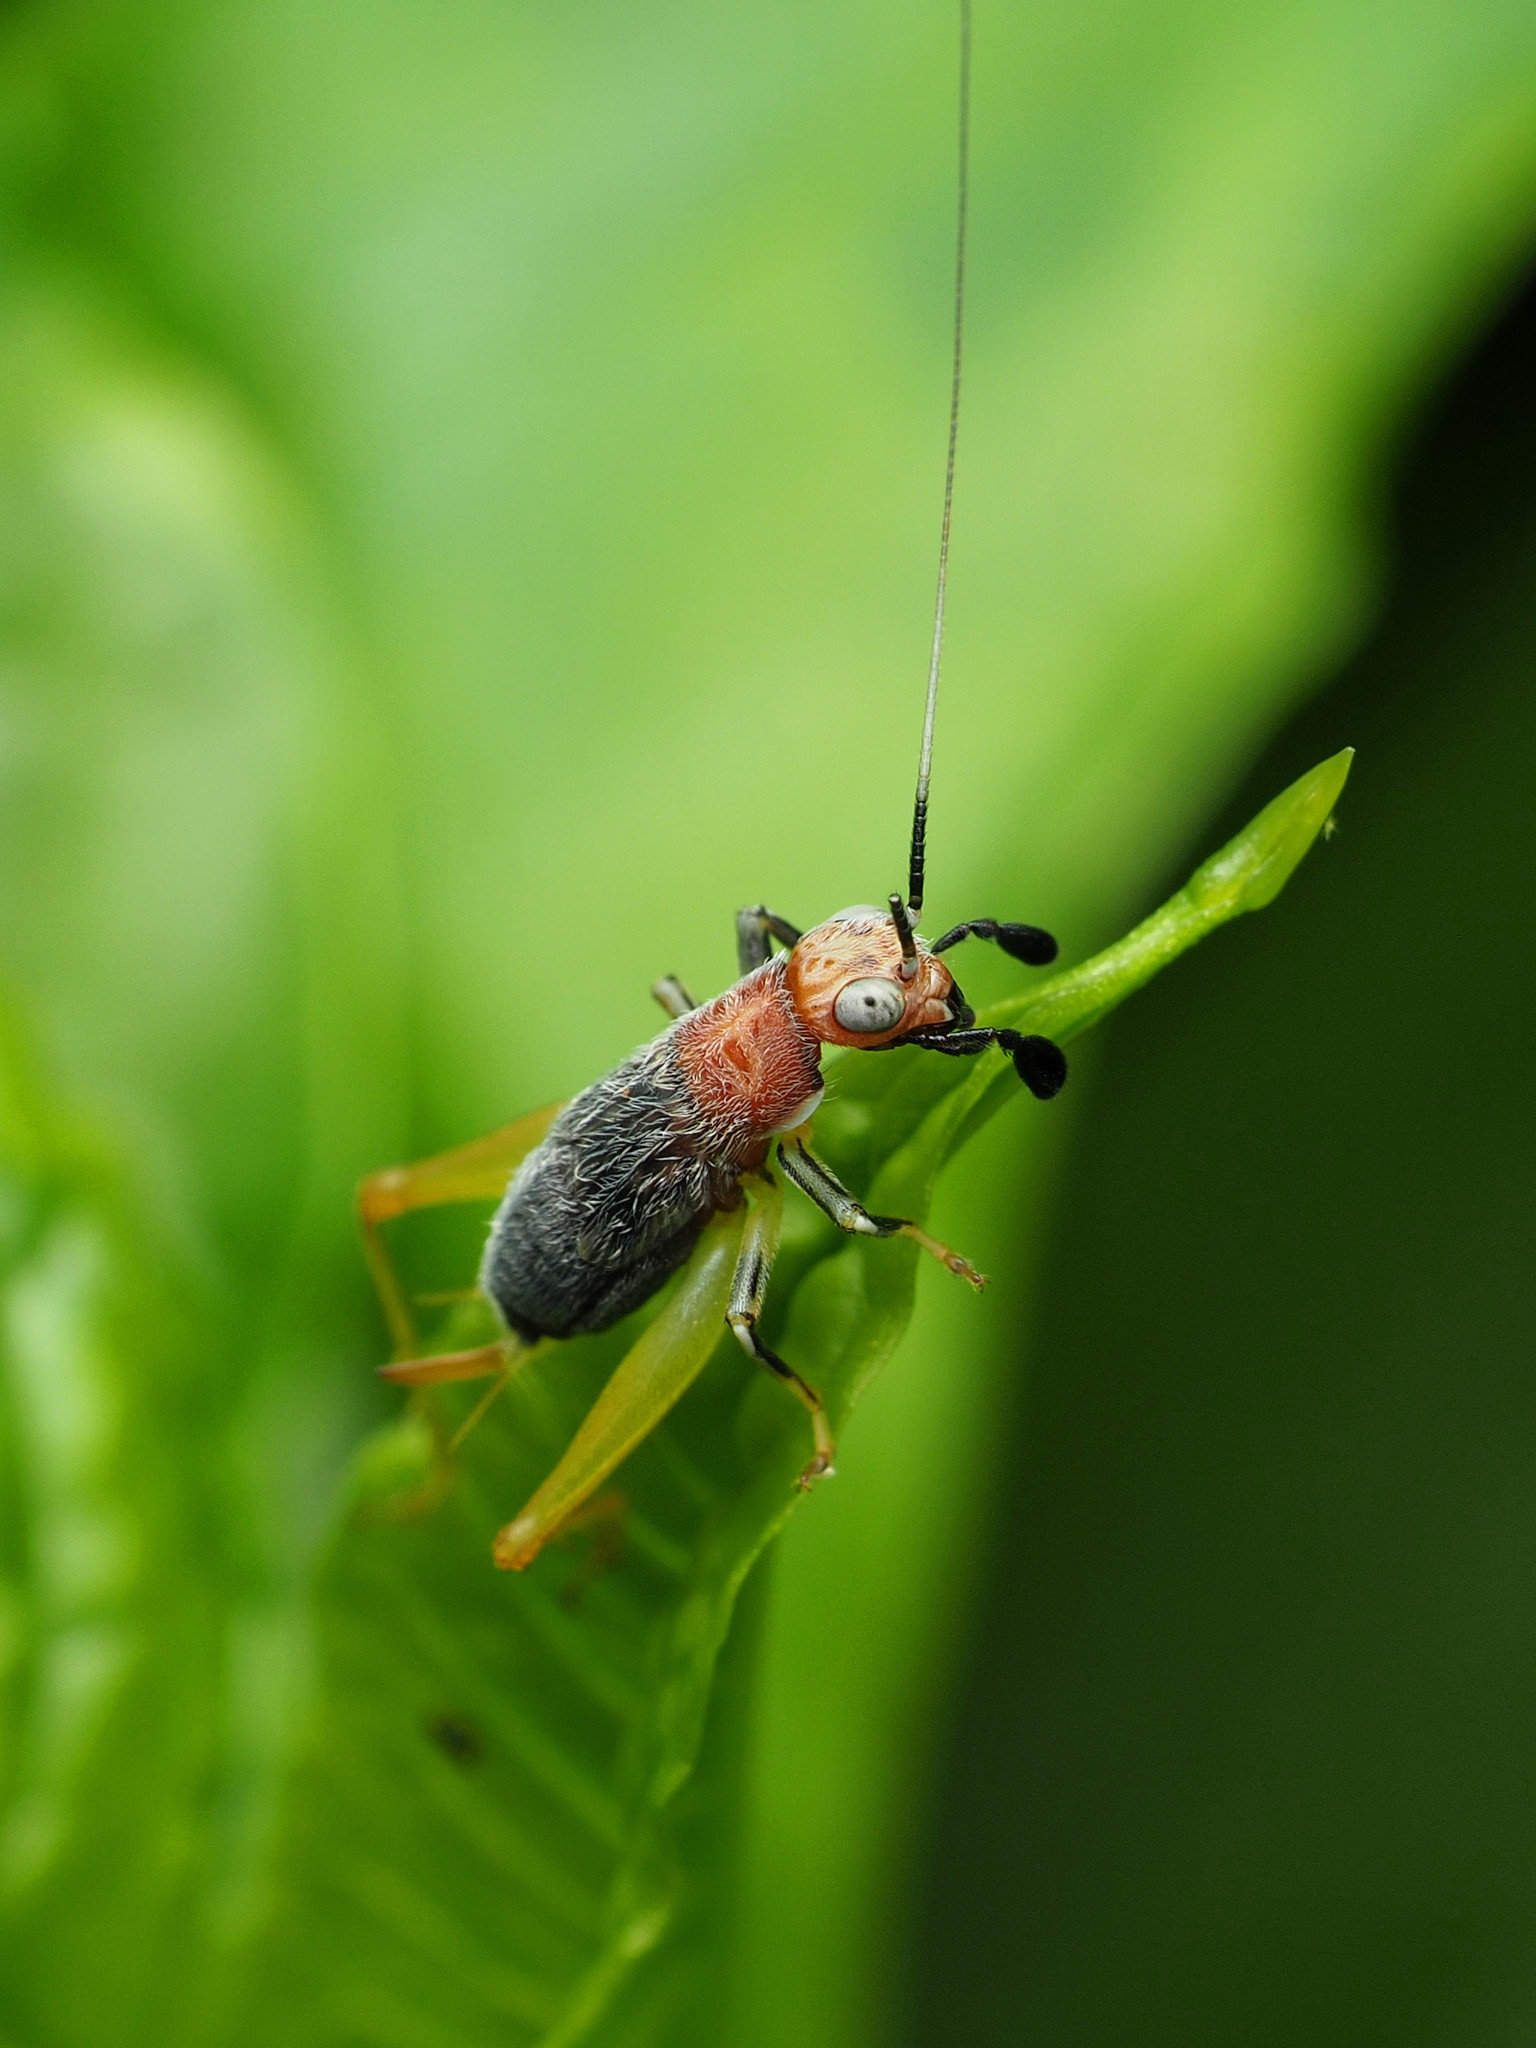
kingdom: Animalia
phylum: Arthropoda
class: Insecta
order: Orthoptera
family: Trigonidiidae
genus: Phyllopalpus
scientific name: Phyllopalpus pulchellus
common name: Handsome trig
